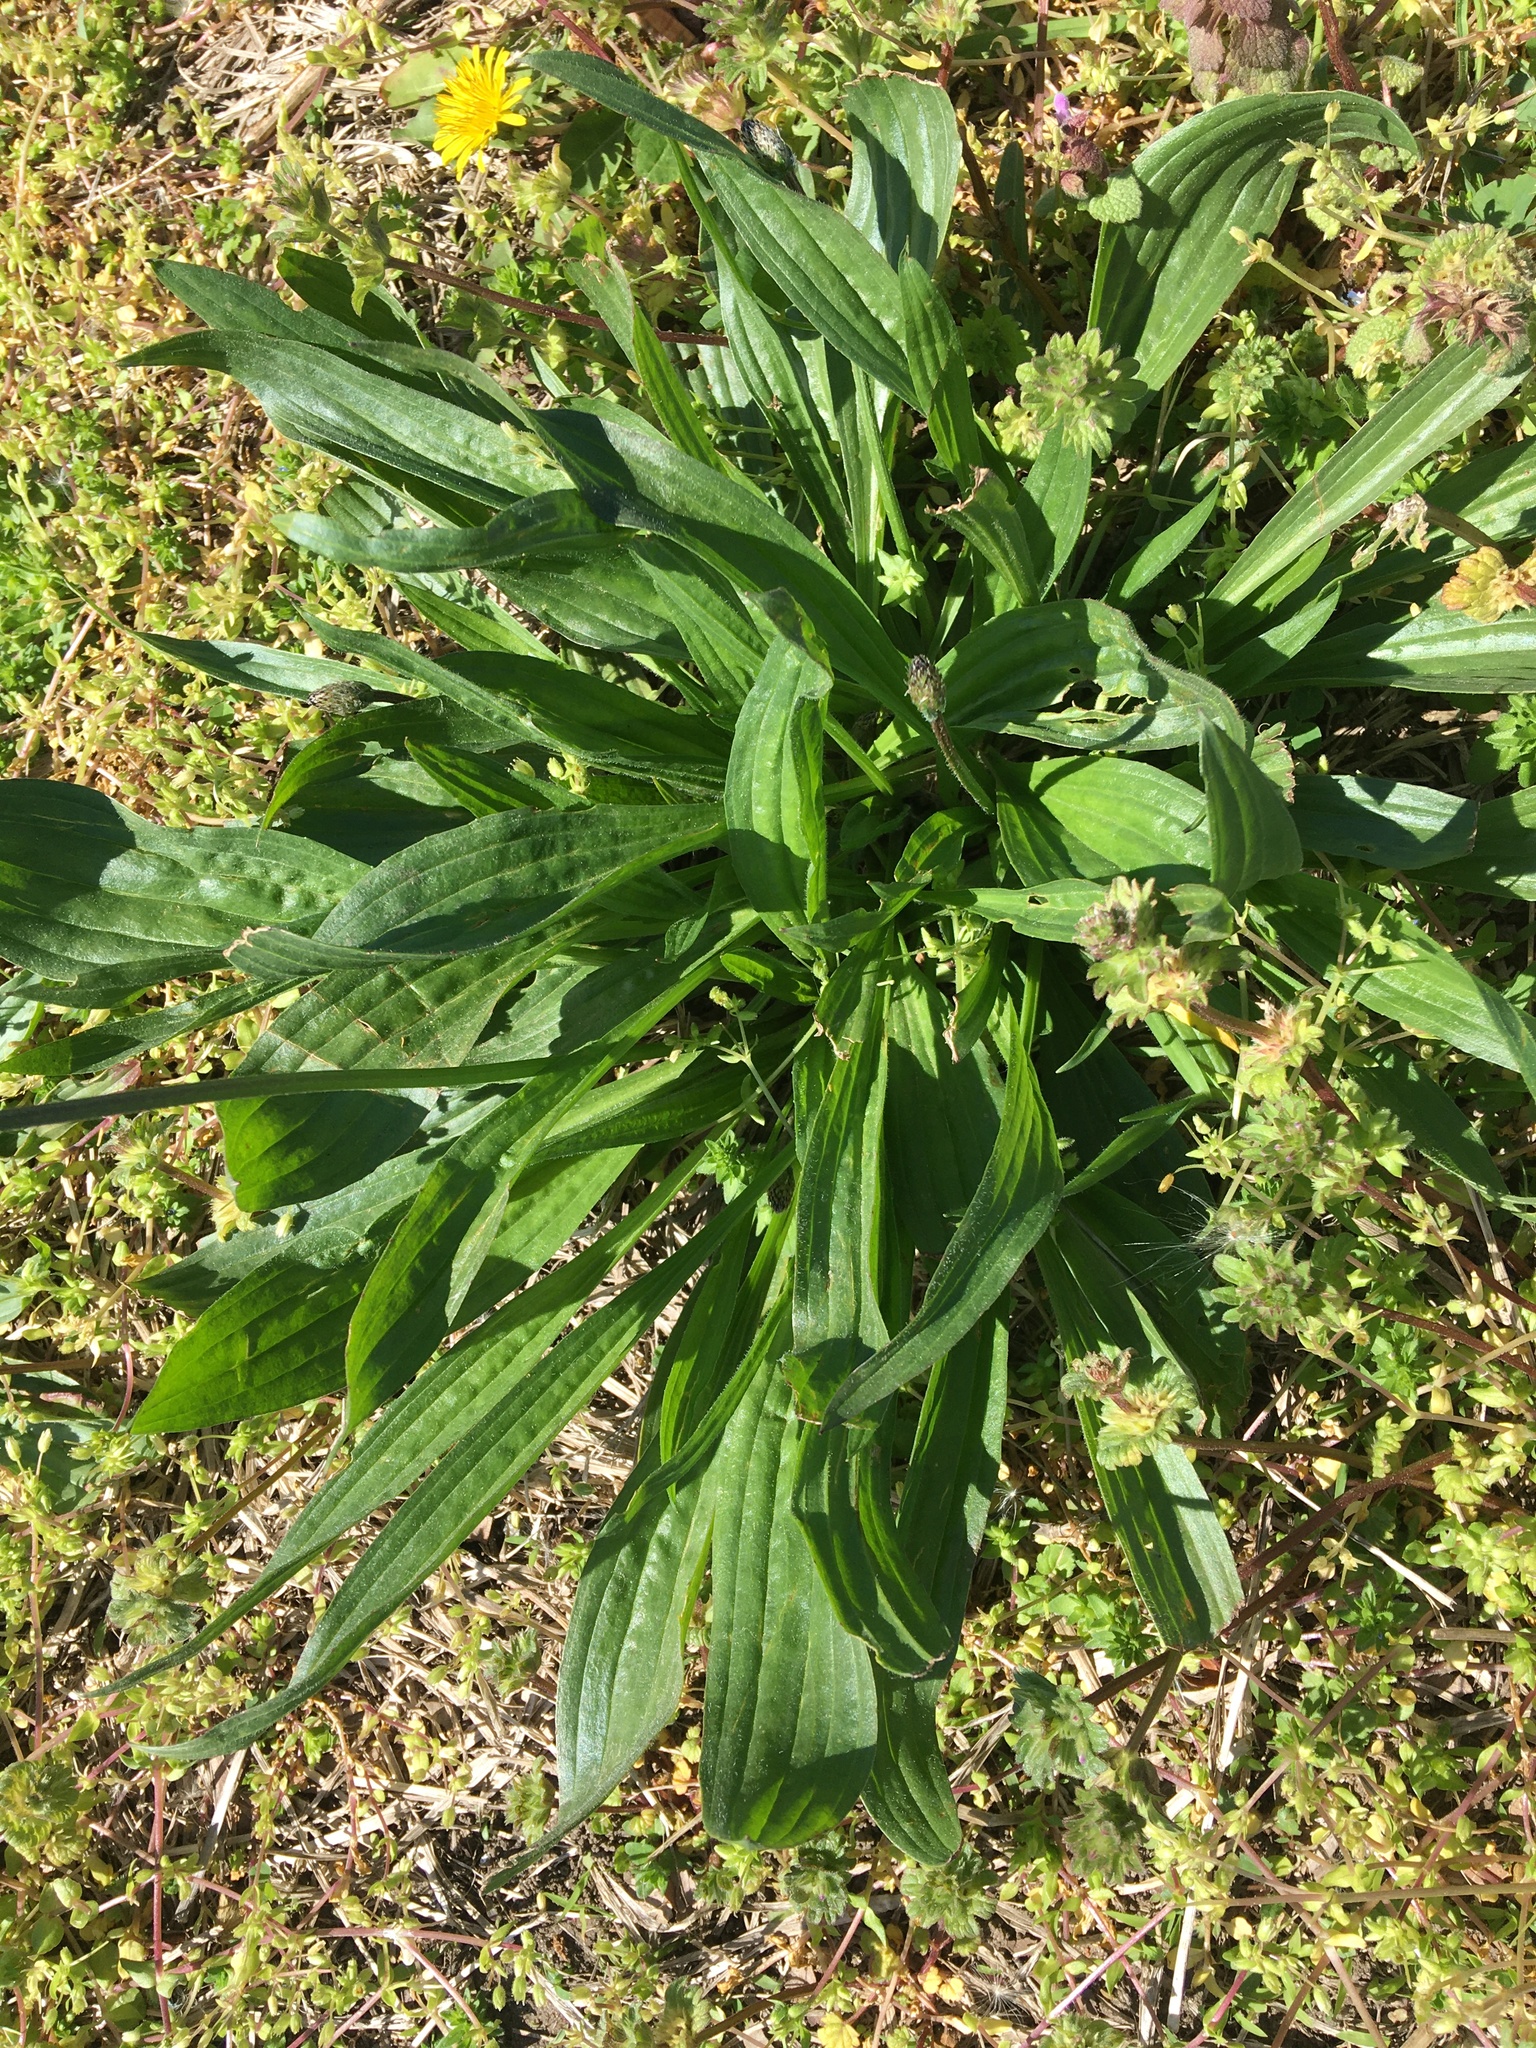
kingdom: Plantae
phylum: Tracheophyta
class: Magnoliopsida
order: Lamiales
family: Plantaginaceae
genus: Plantago
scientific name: Plantago lanceolata
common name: Ribwort plantain
